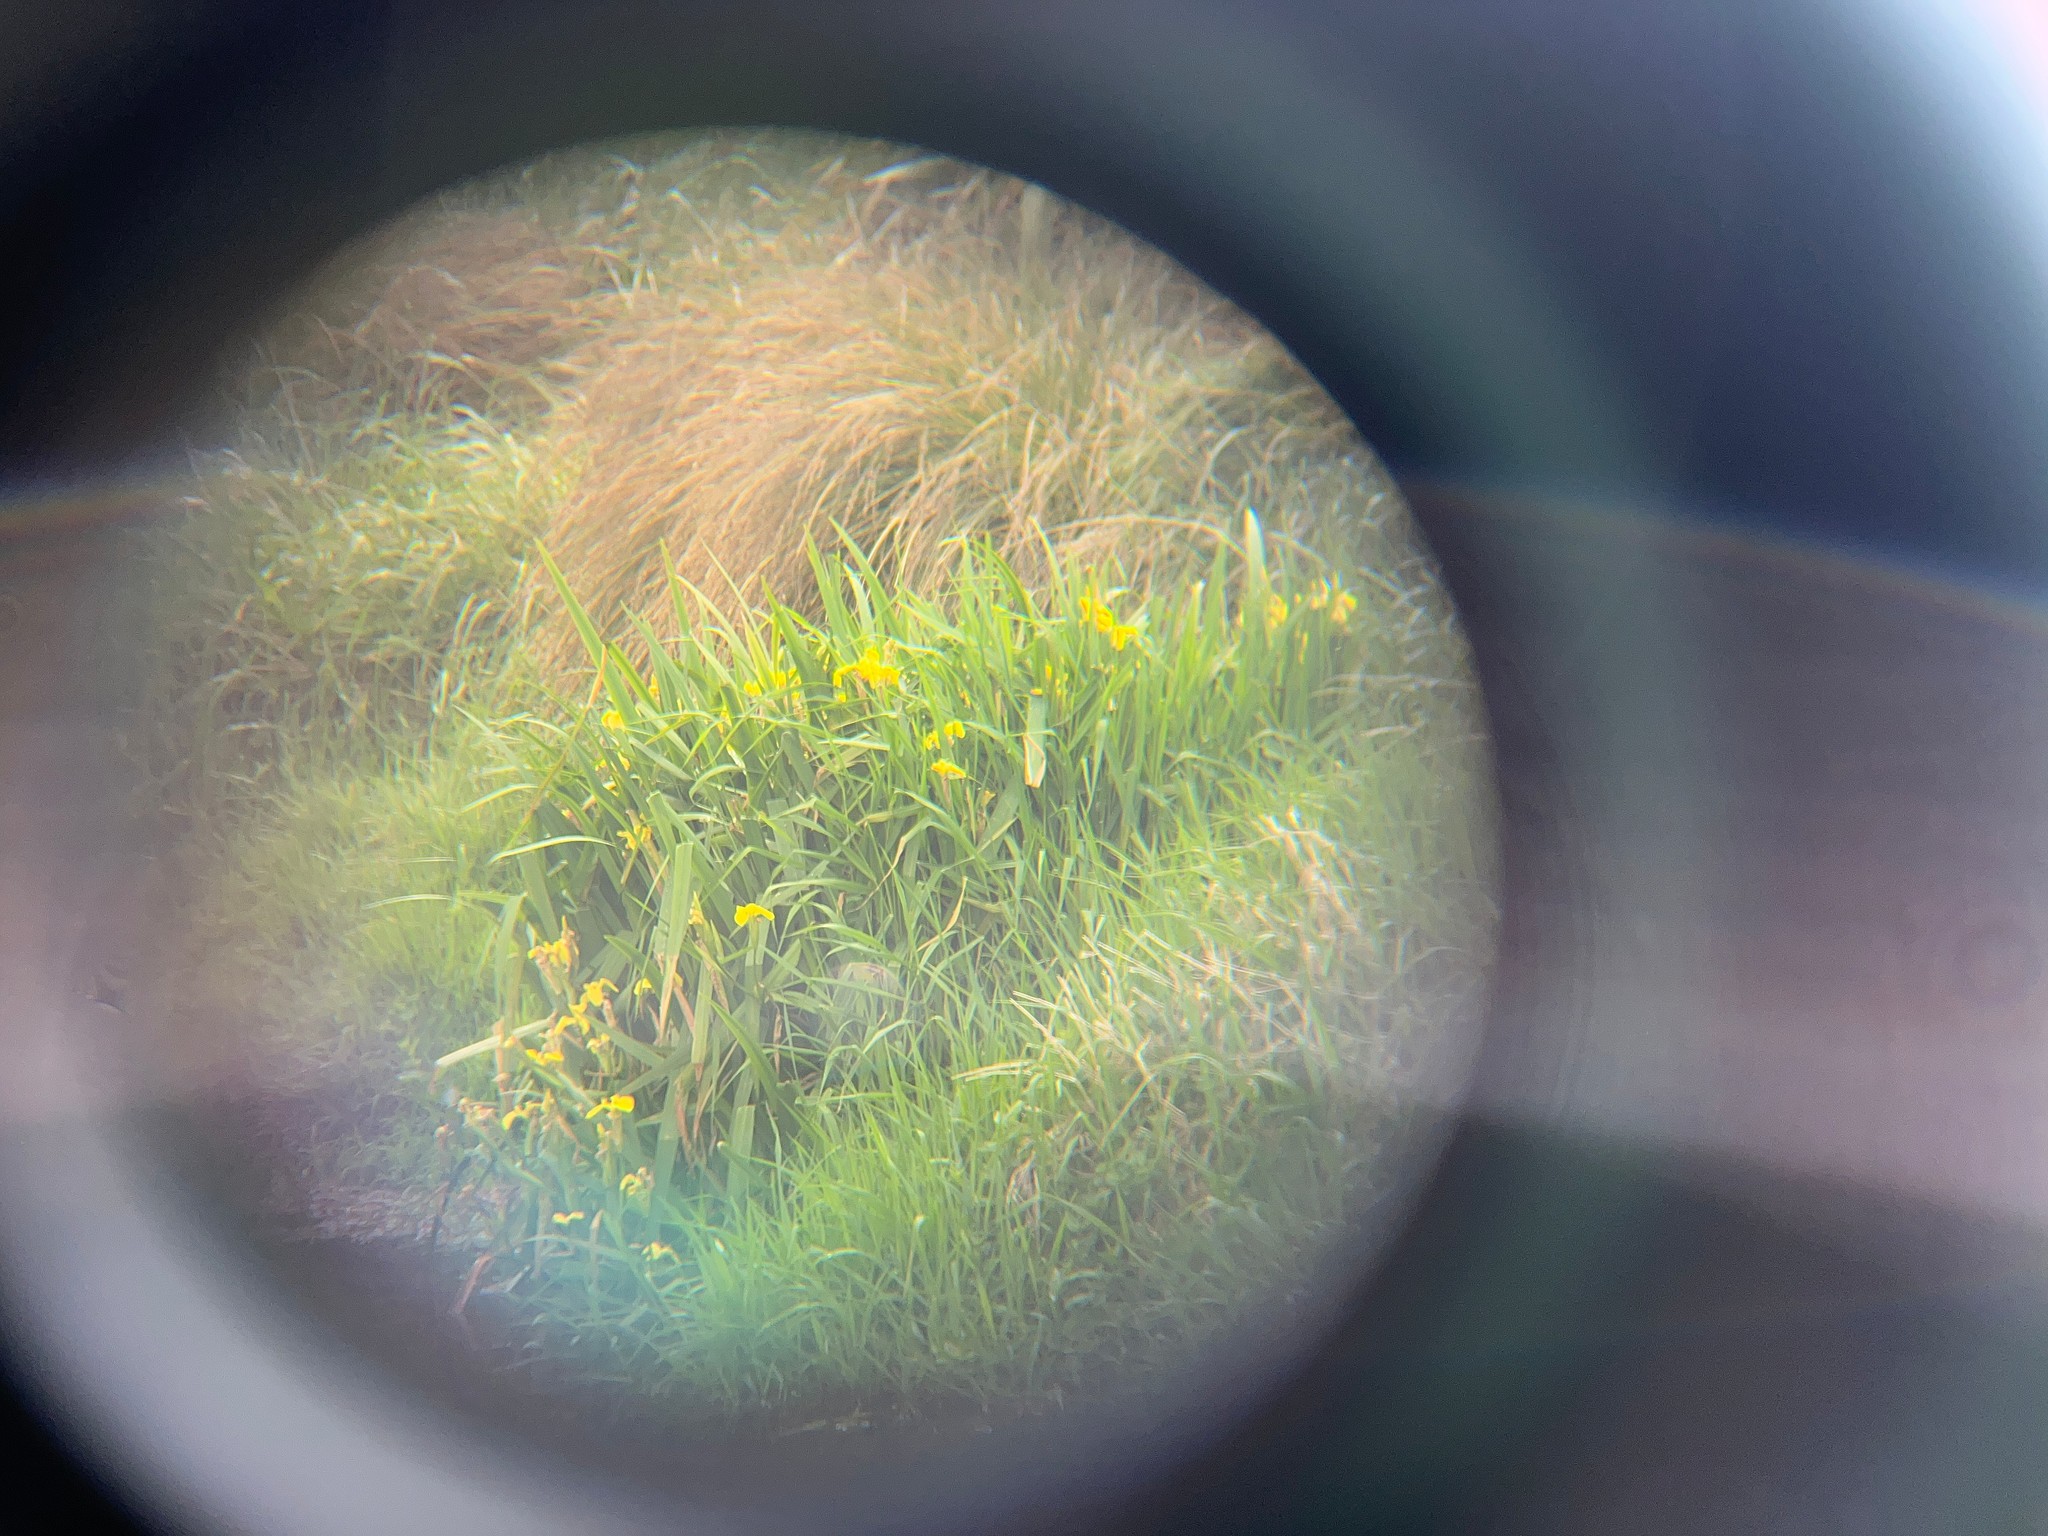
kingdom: Plantae
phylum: Tracheophyta
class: Liliopsida
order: Asparagales
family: Iridaceae
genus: Iris
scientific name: Iris pseudacorus
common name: Yellow flag
